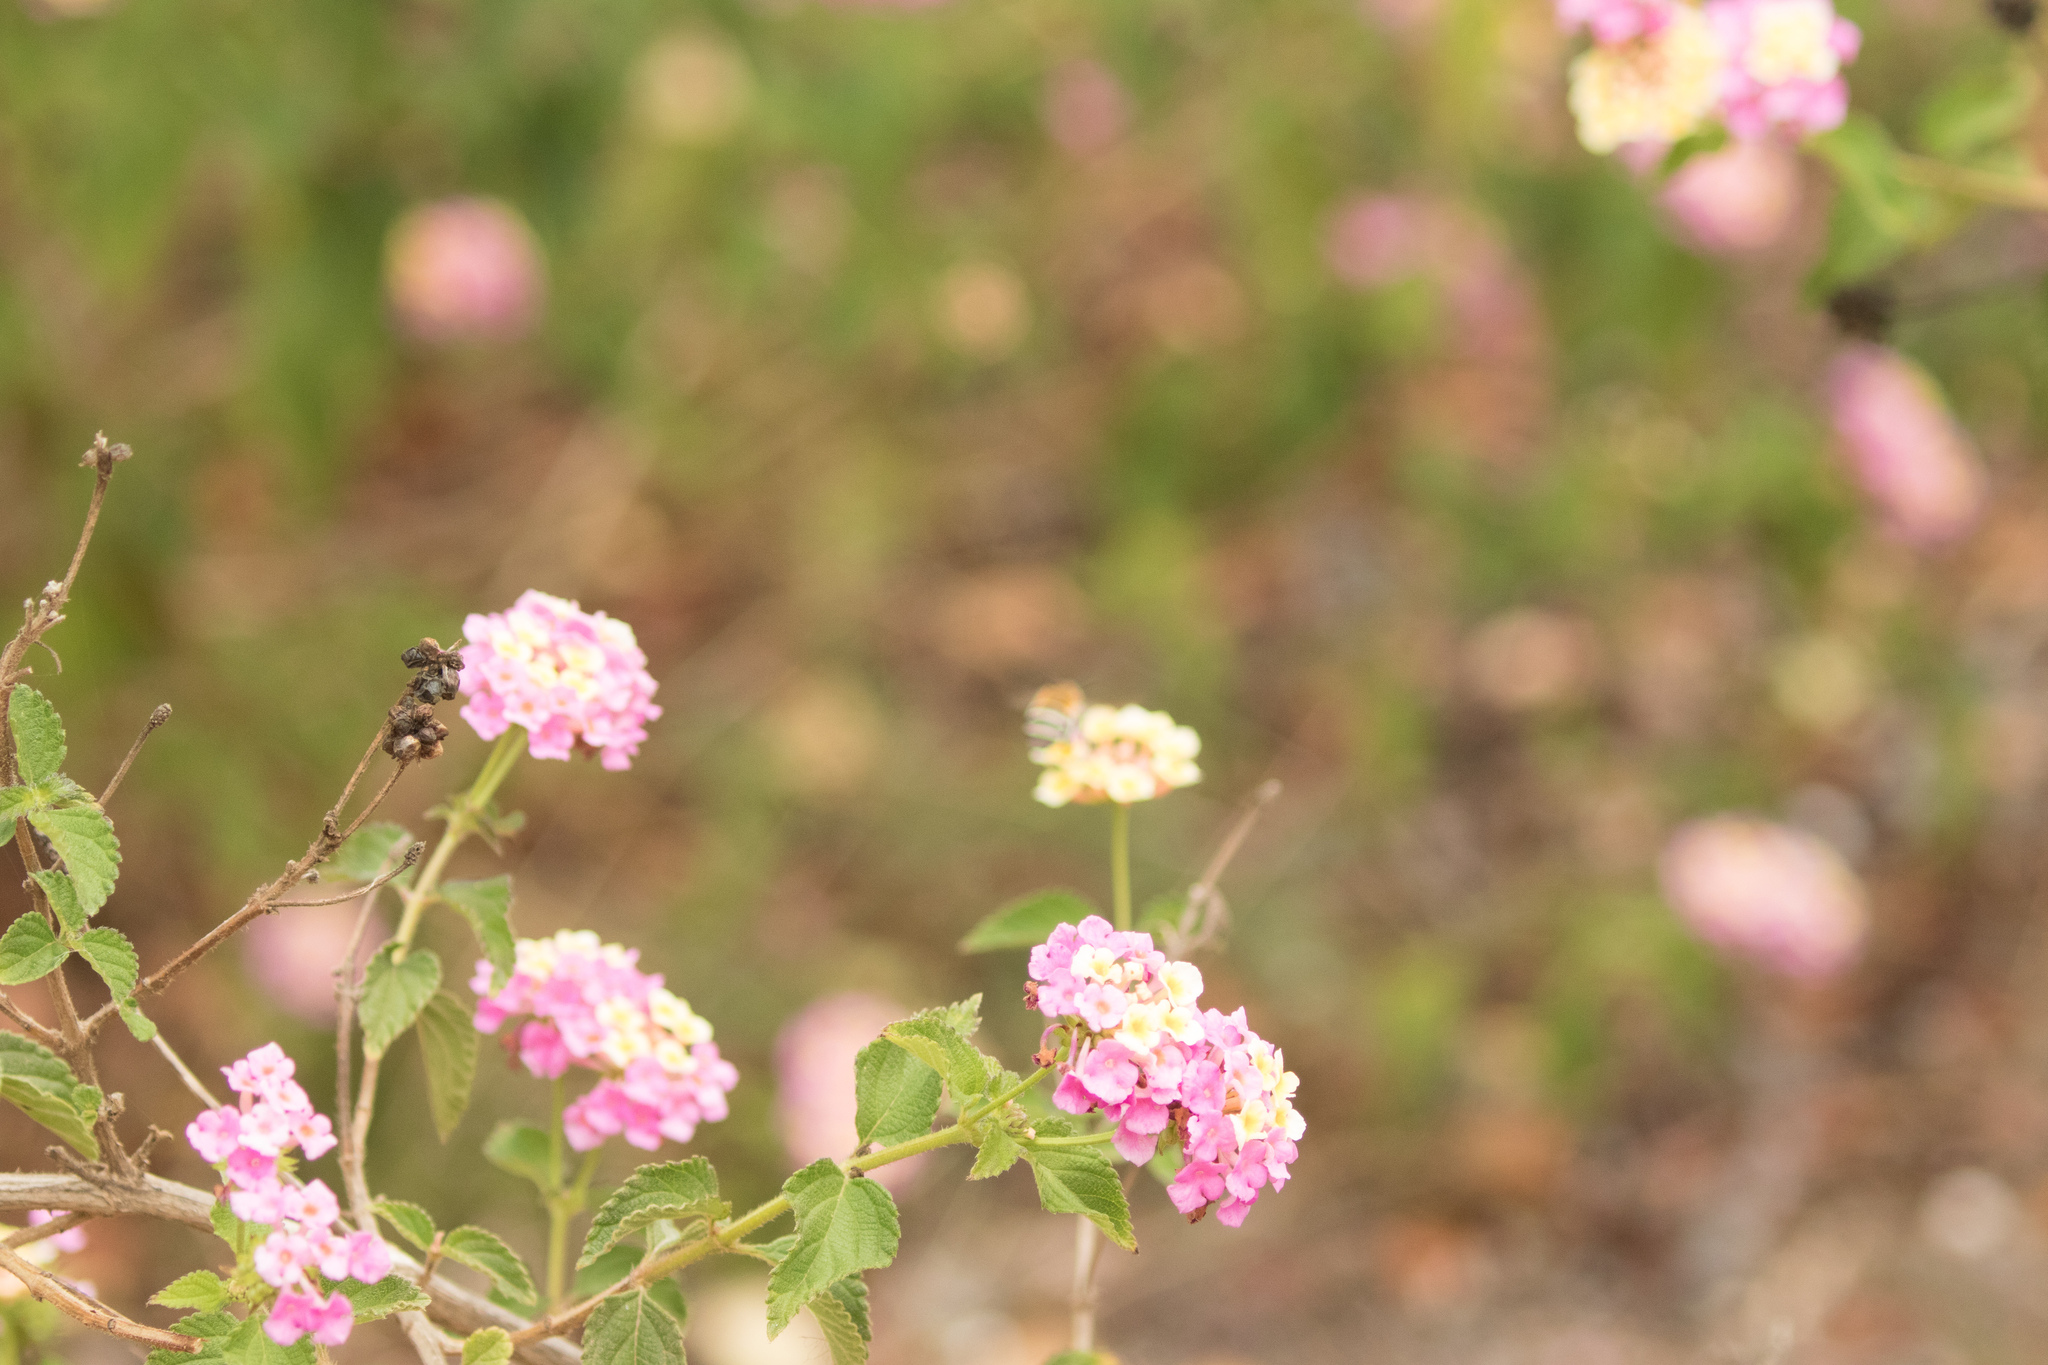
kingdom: Plantae
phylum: Tracheophyta
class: Magnoliopsida
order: Lamiales
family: Verbenaceae
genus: Lantana
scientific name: Lantana camara
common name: Lantana
